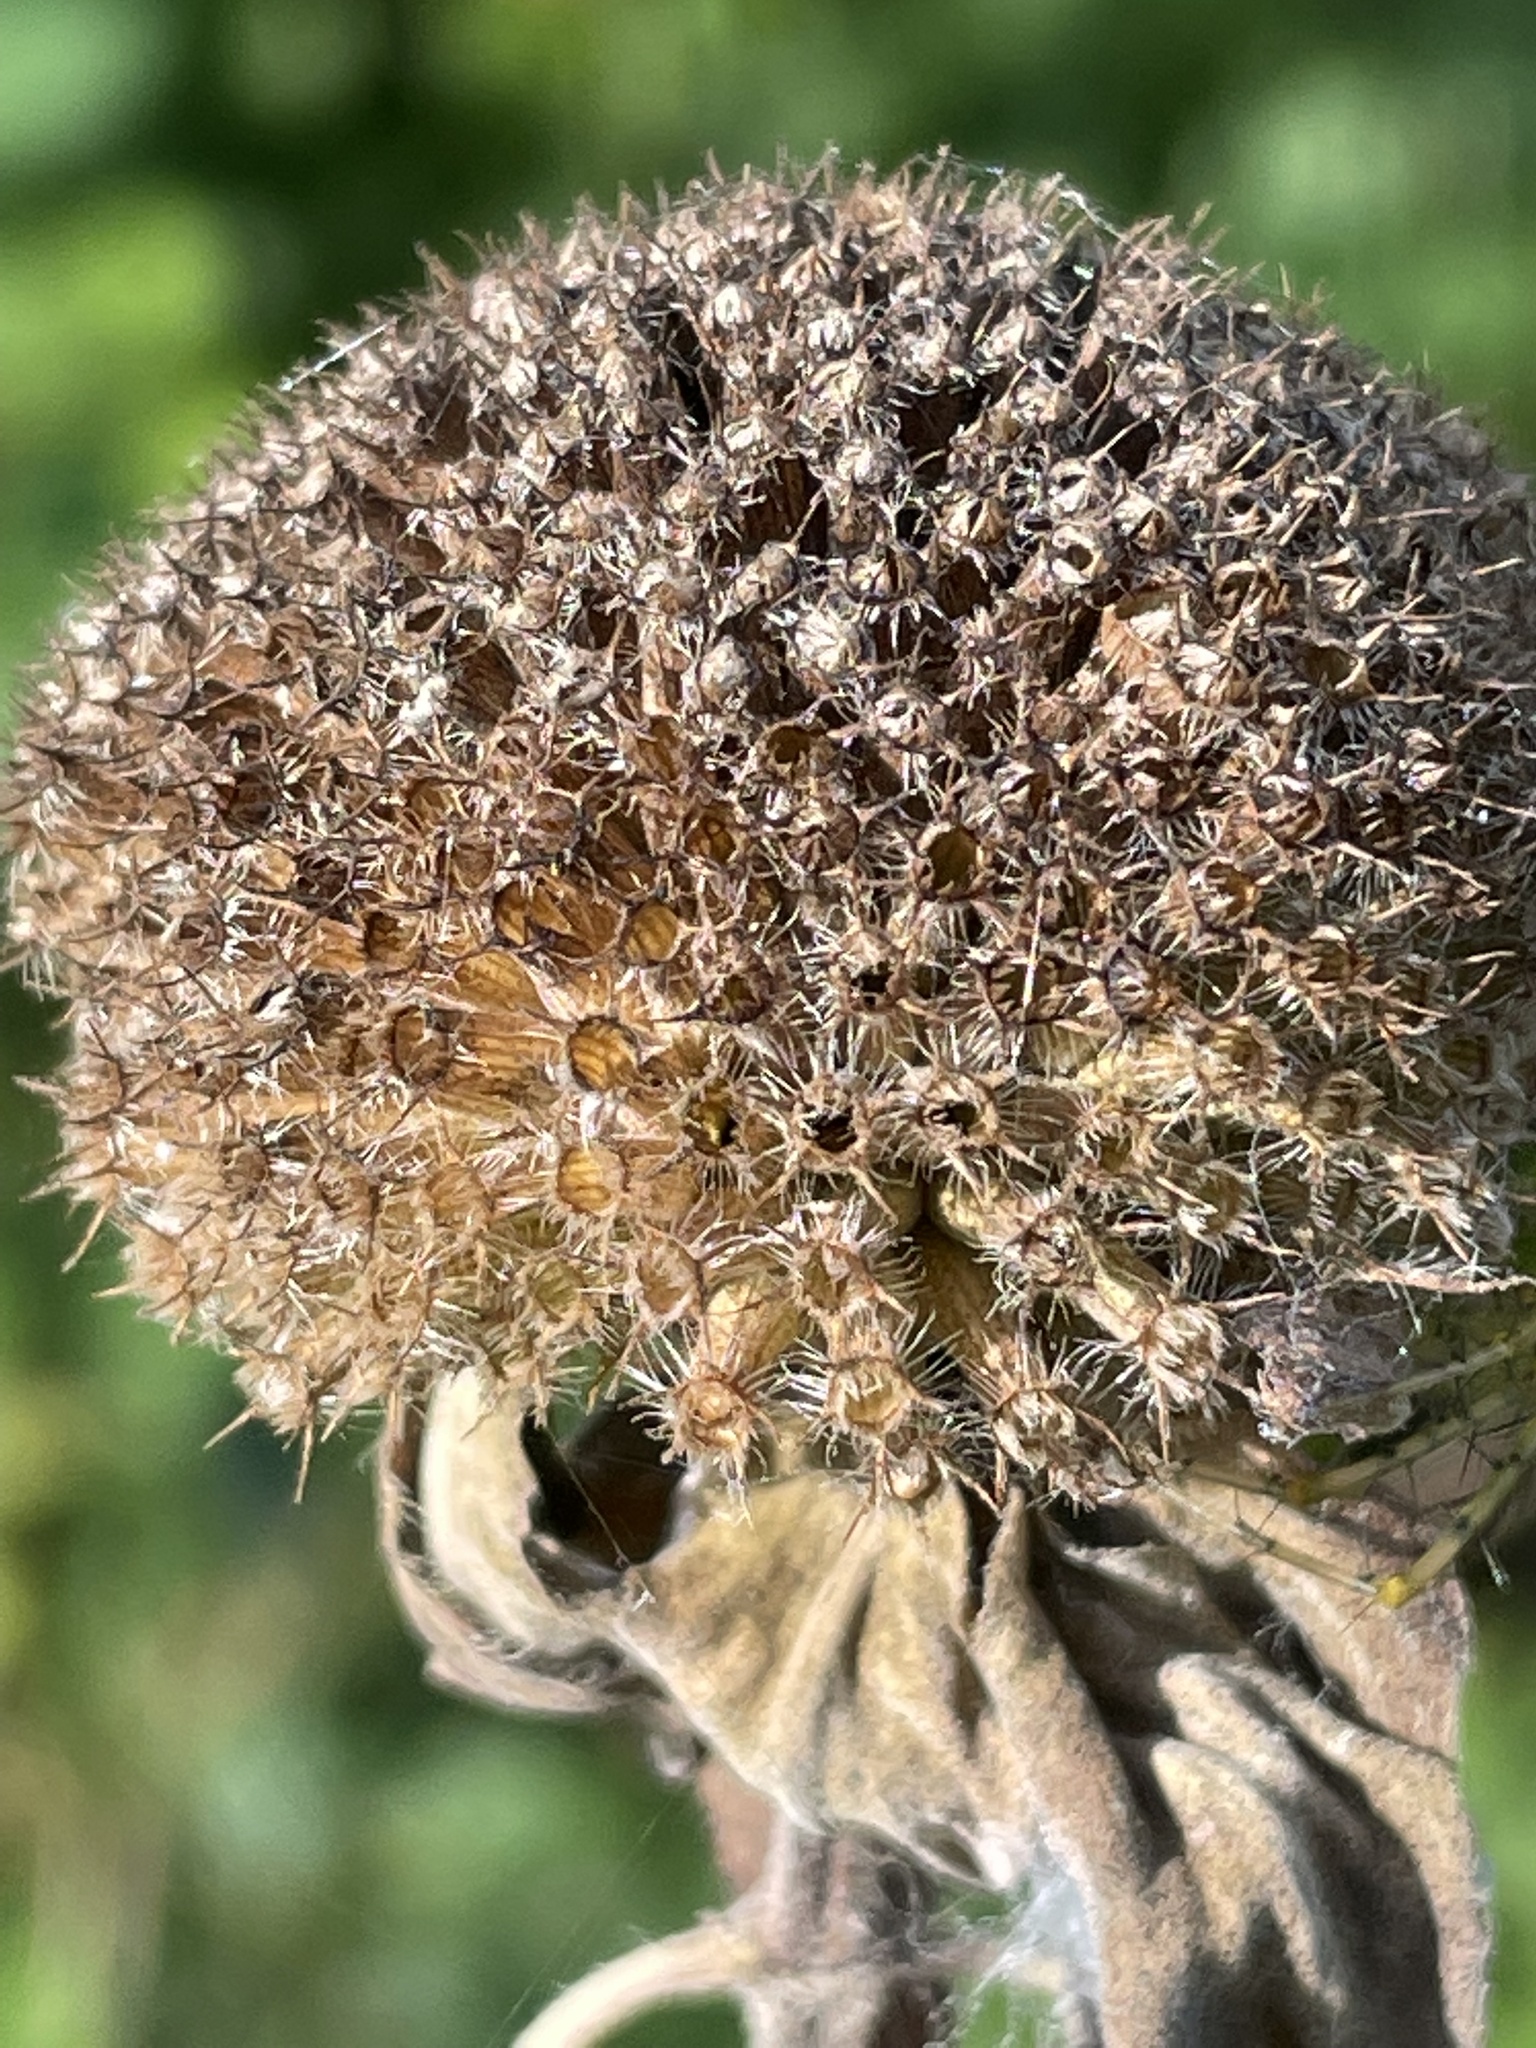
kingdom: Plantae
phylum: Tracheophyta
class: Magnoliopsida
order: Lamiales
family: Lamiaceae
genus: Monarda
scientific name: Monarda fistulosa
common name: Purple beebalm
